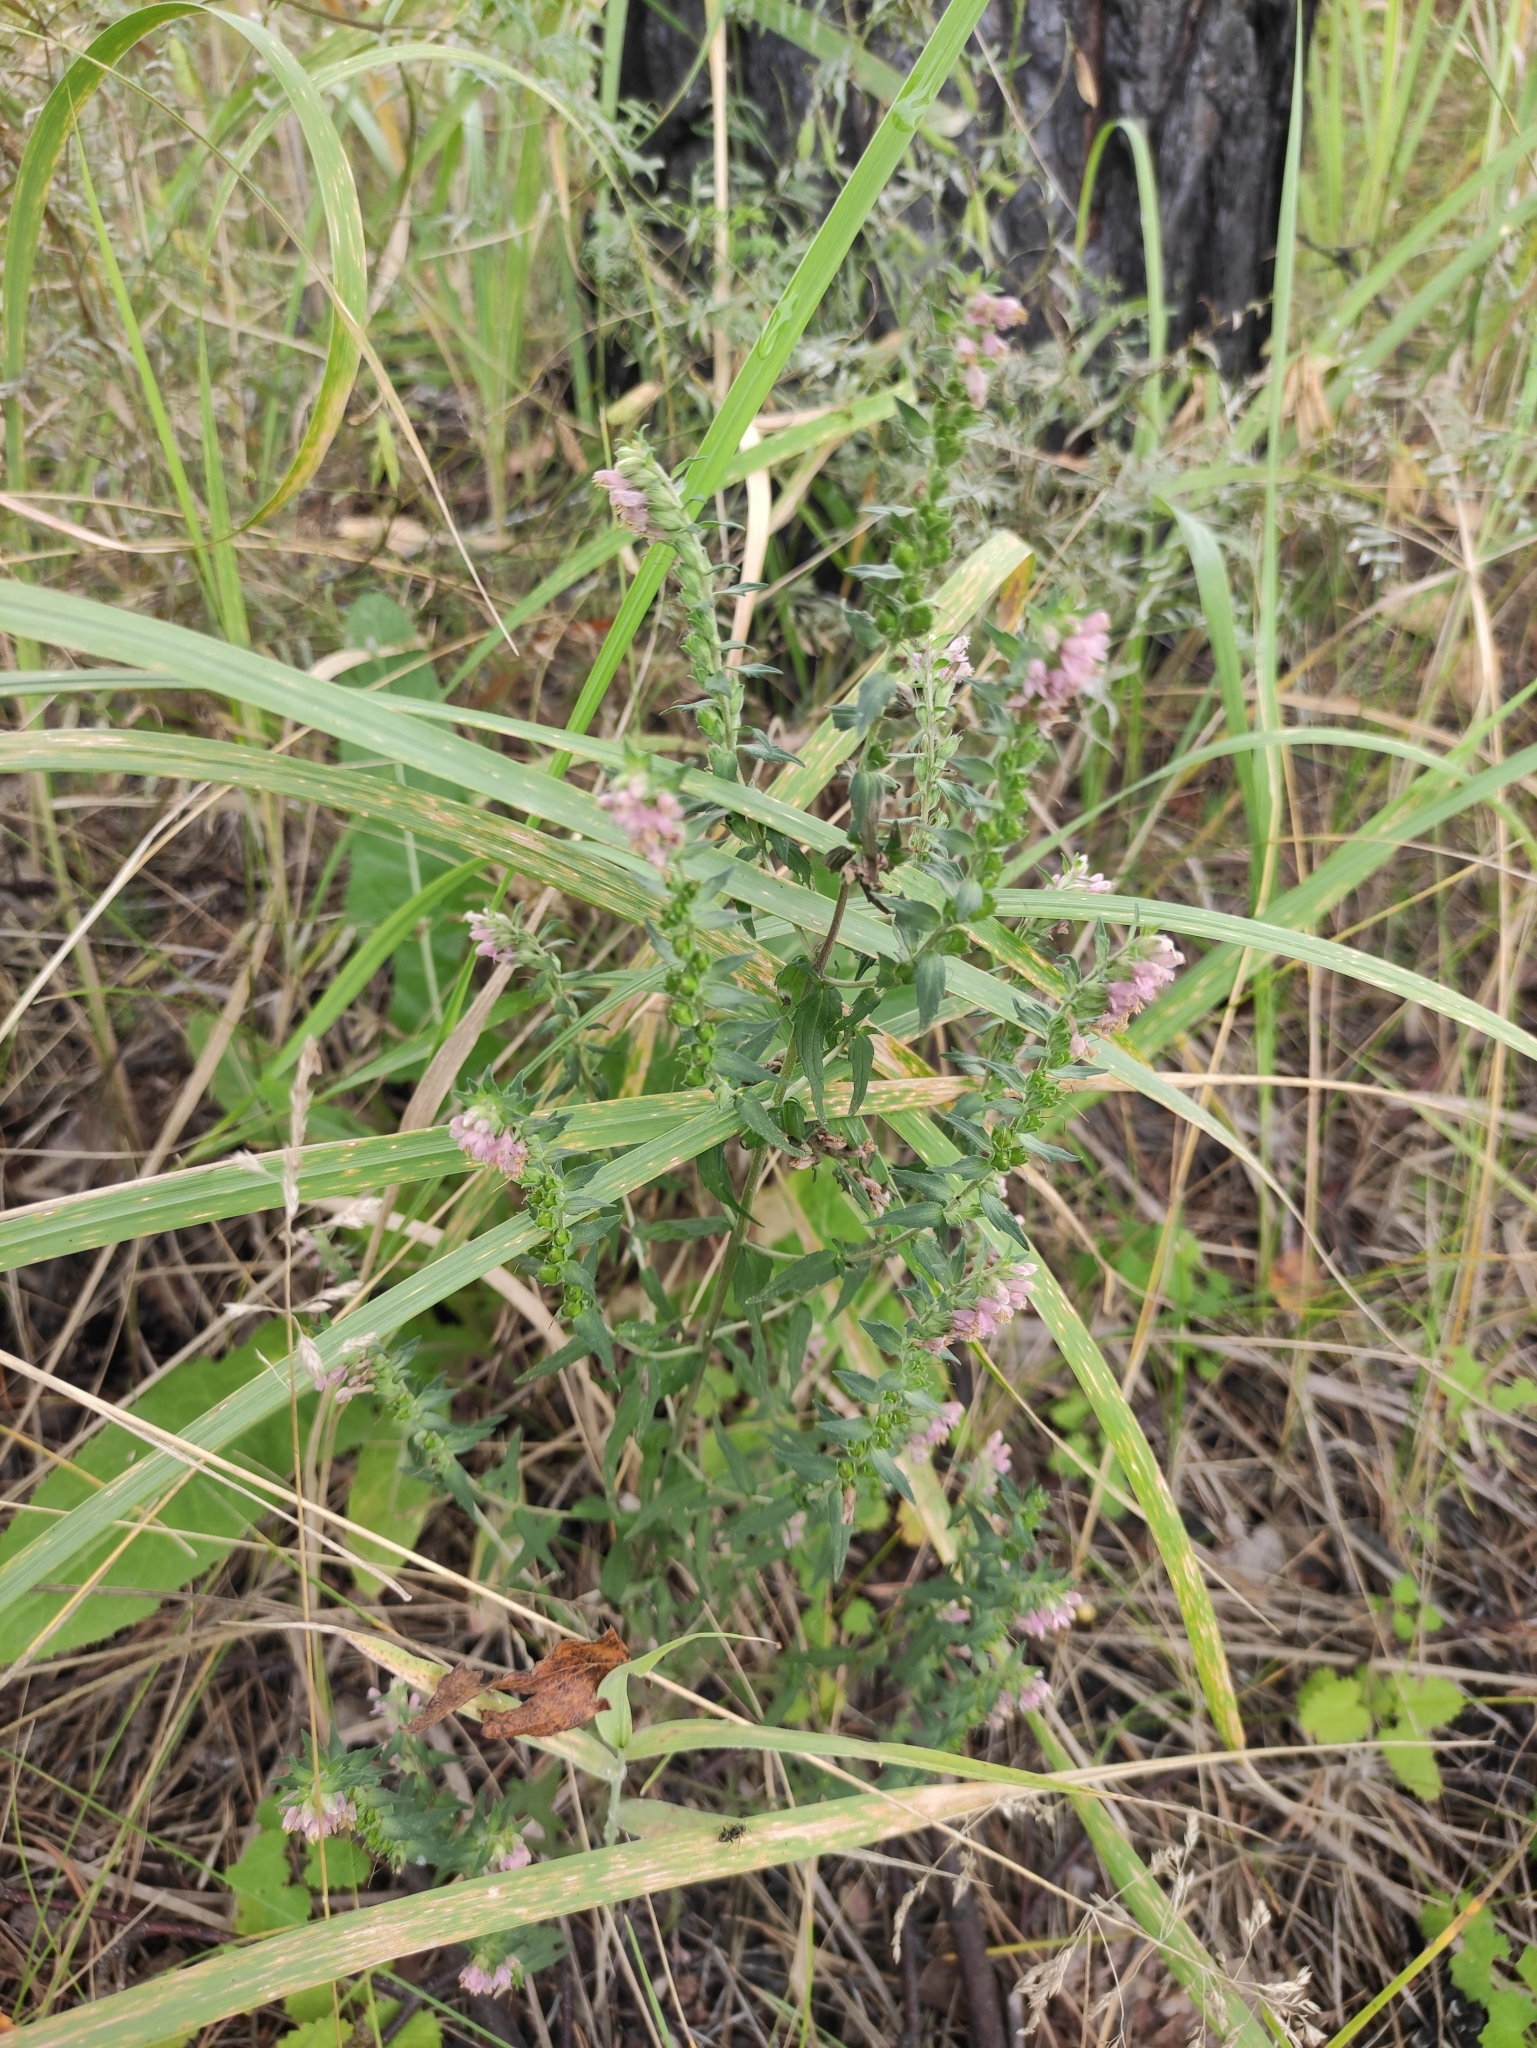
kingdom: Plantae
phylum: Tracheophyta
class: Magnoliopsida
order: Lamiales
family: Orobanchaceae
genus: Odontites
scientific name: Odontites vulgaris
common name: Broomrape
